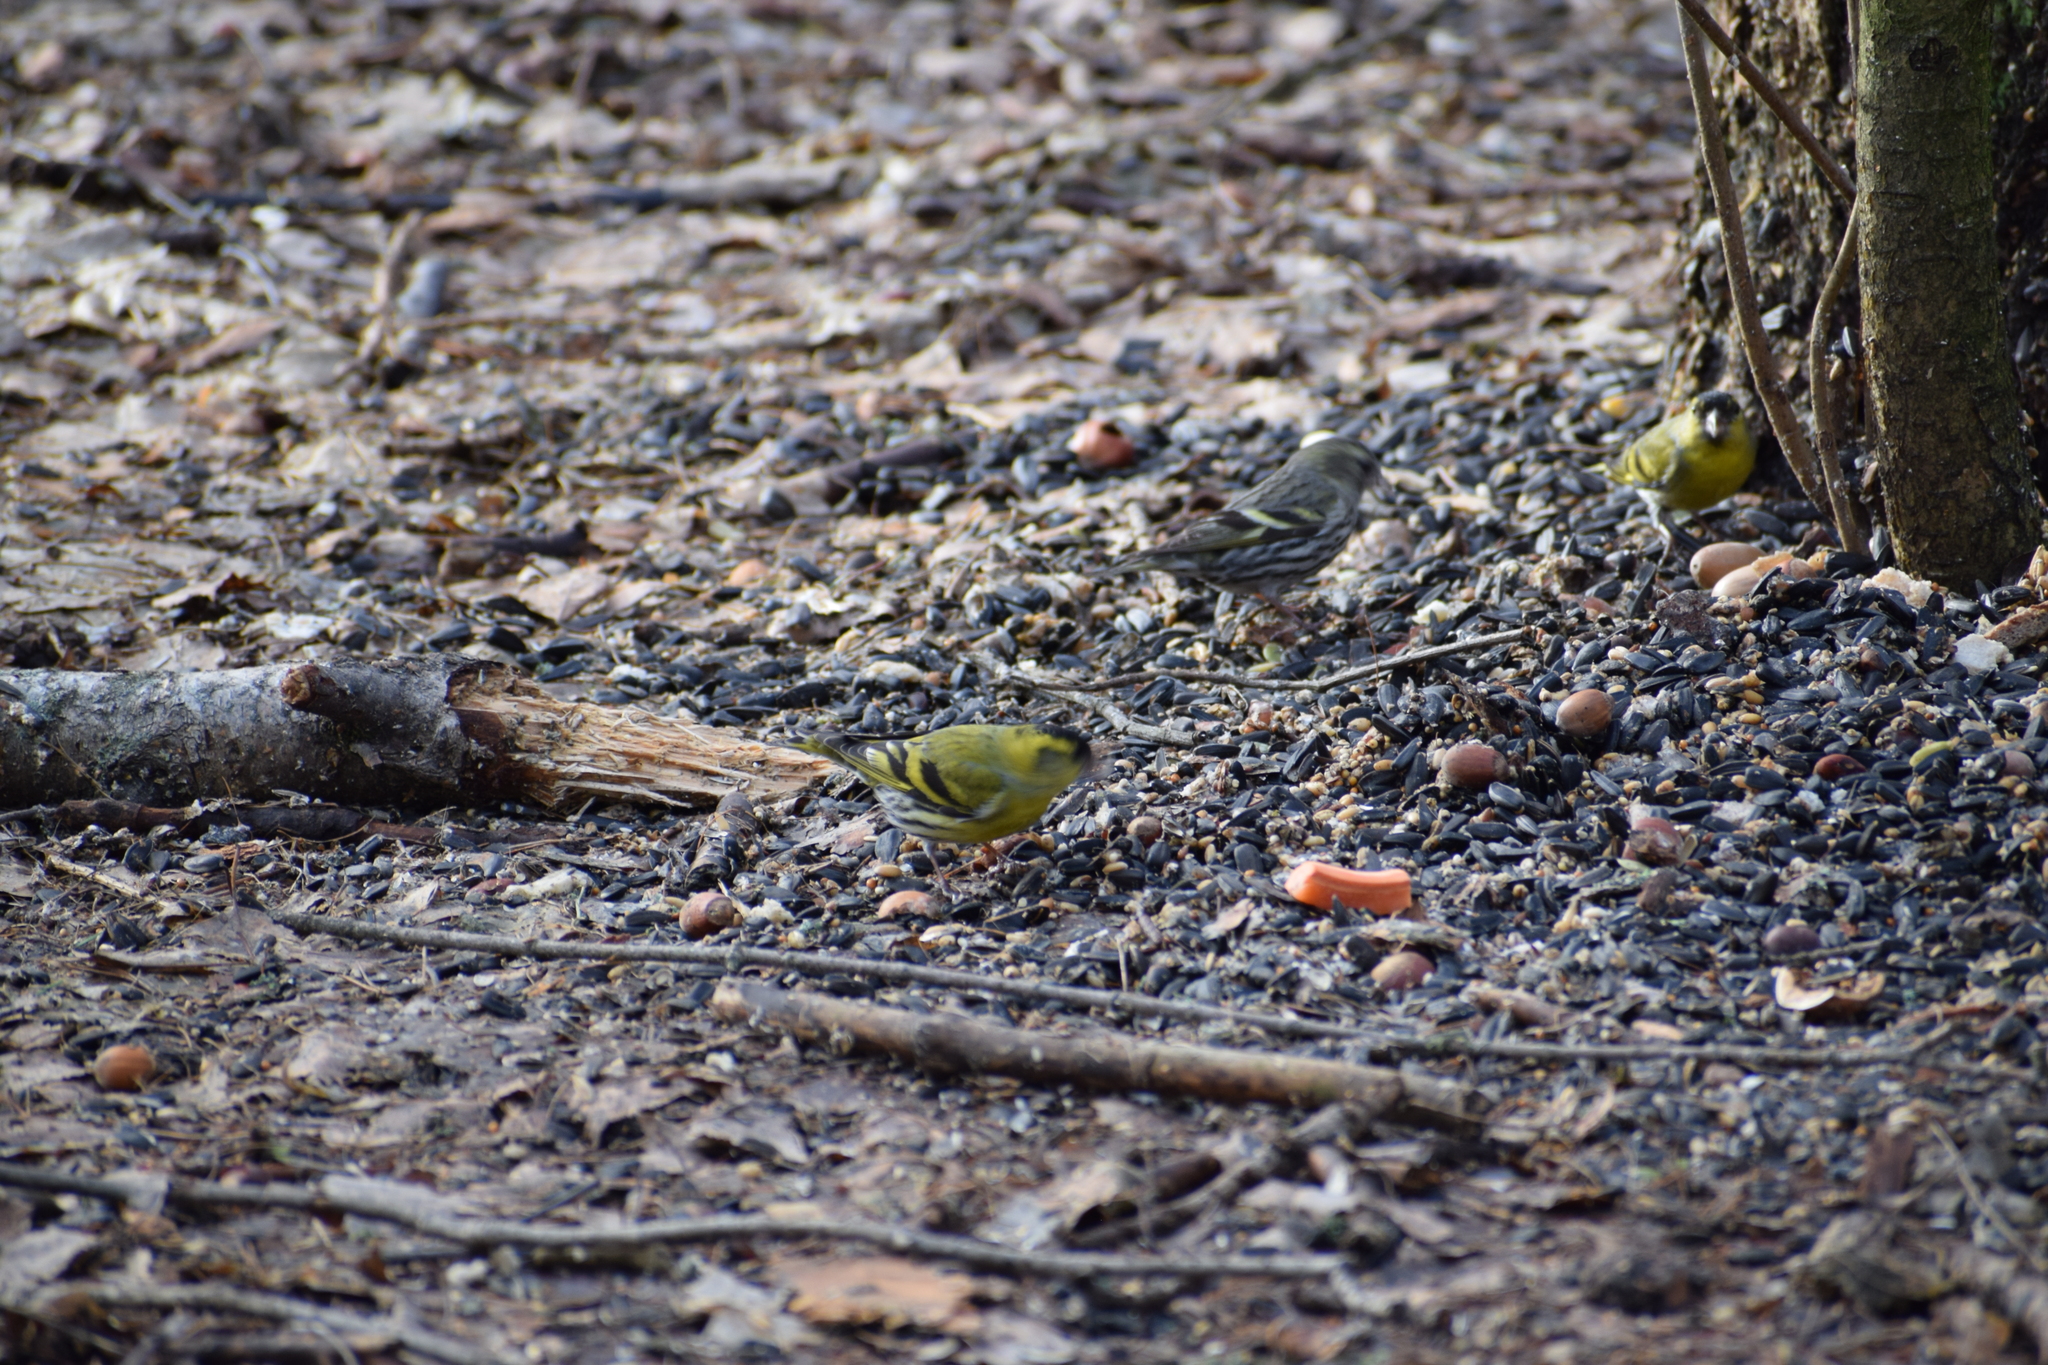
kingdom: Animalia
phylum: Chordata
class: Aves
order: Passeriformes
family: Fringillidae
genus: Spinus
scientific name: Spinus spinus
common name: Eurasian siskin
